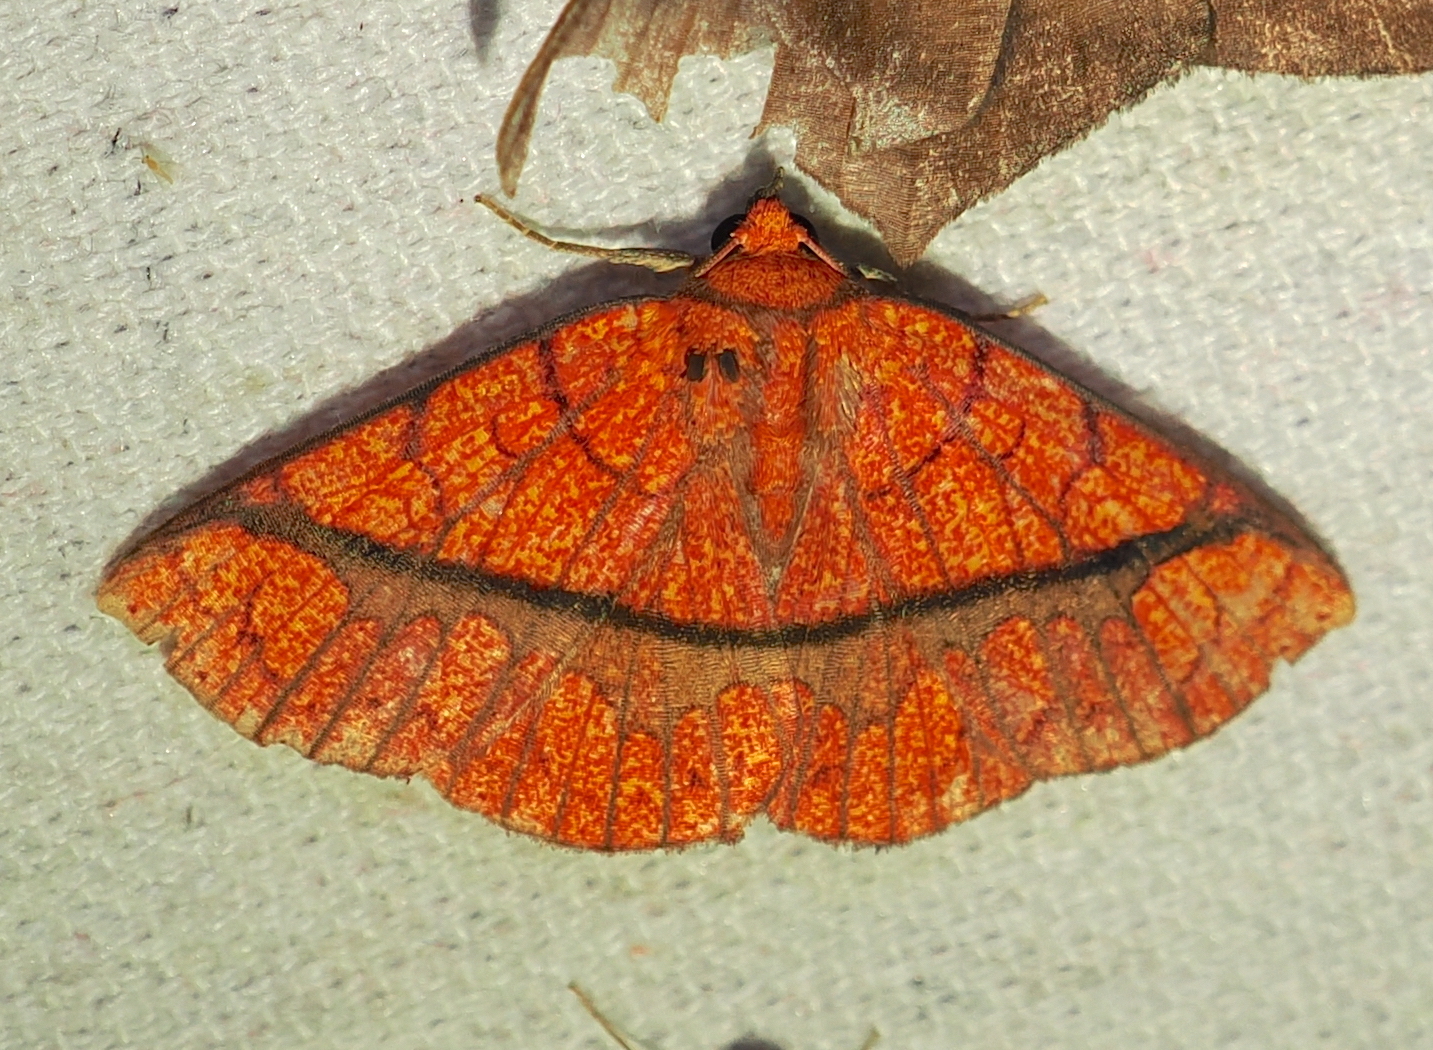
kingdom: Animalia
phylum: Arthropoda
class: Insecta
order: Lepidoptera
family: Erebidae
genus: Antiblemma
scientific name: Antiblemma subrutilans
